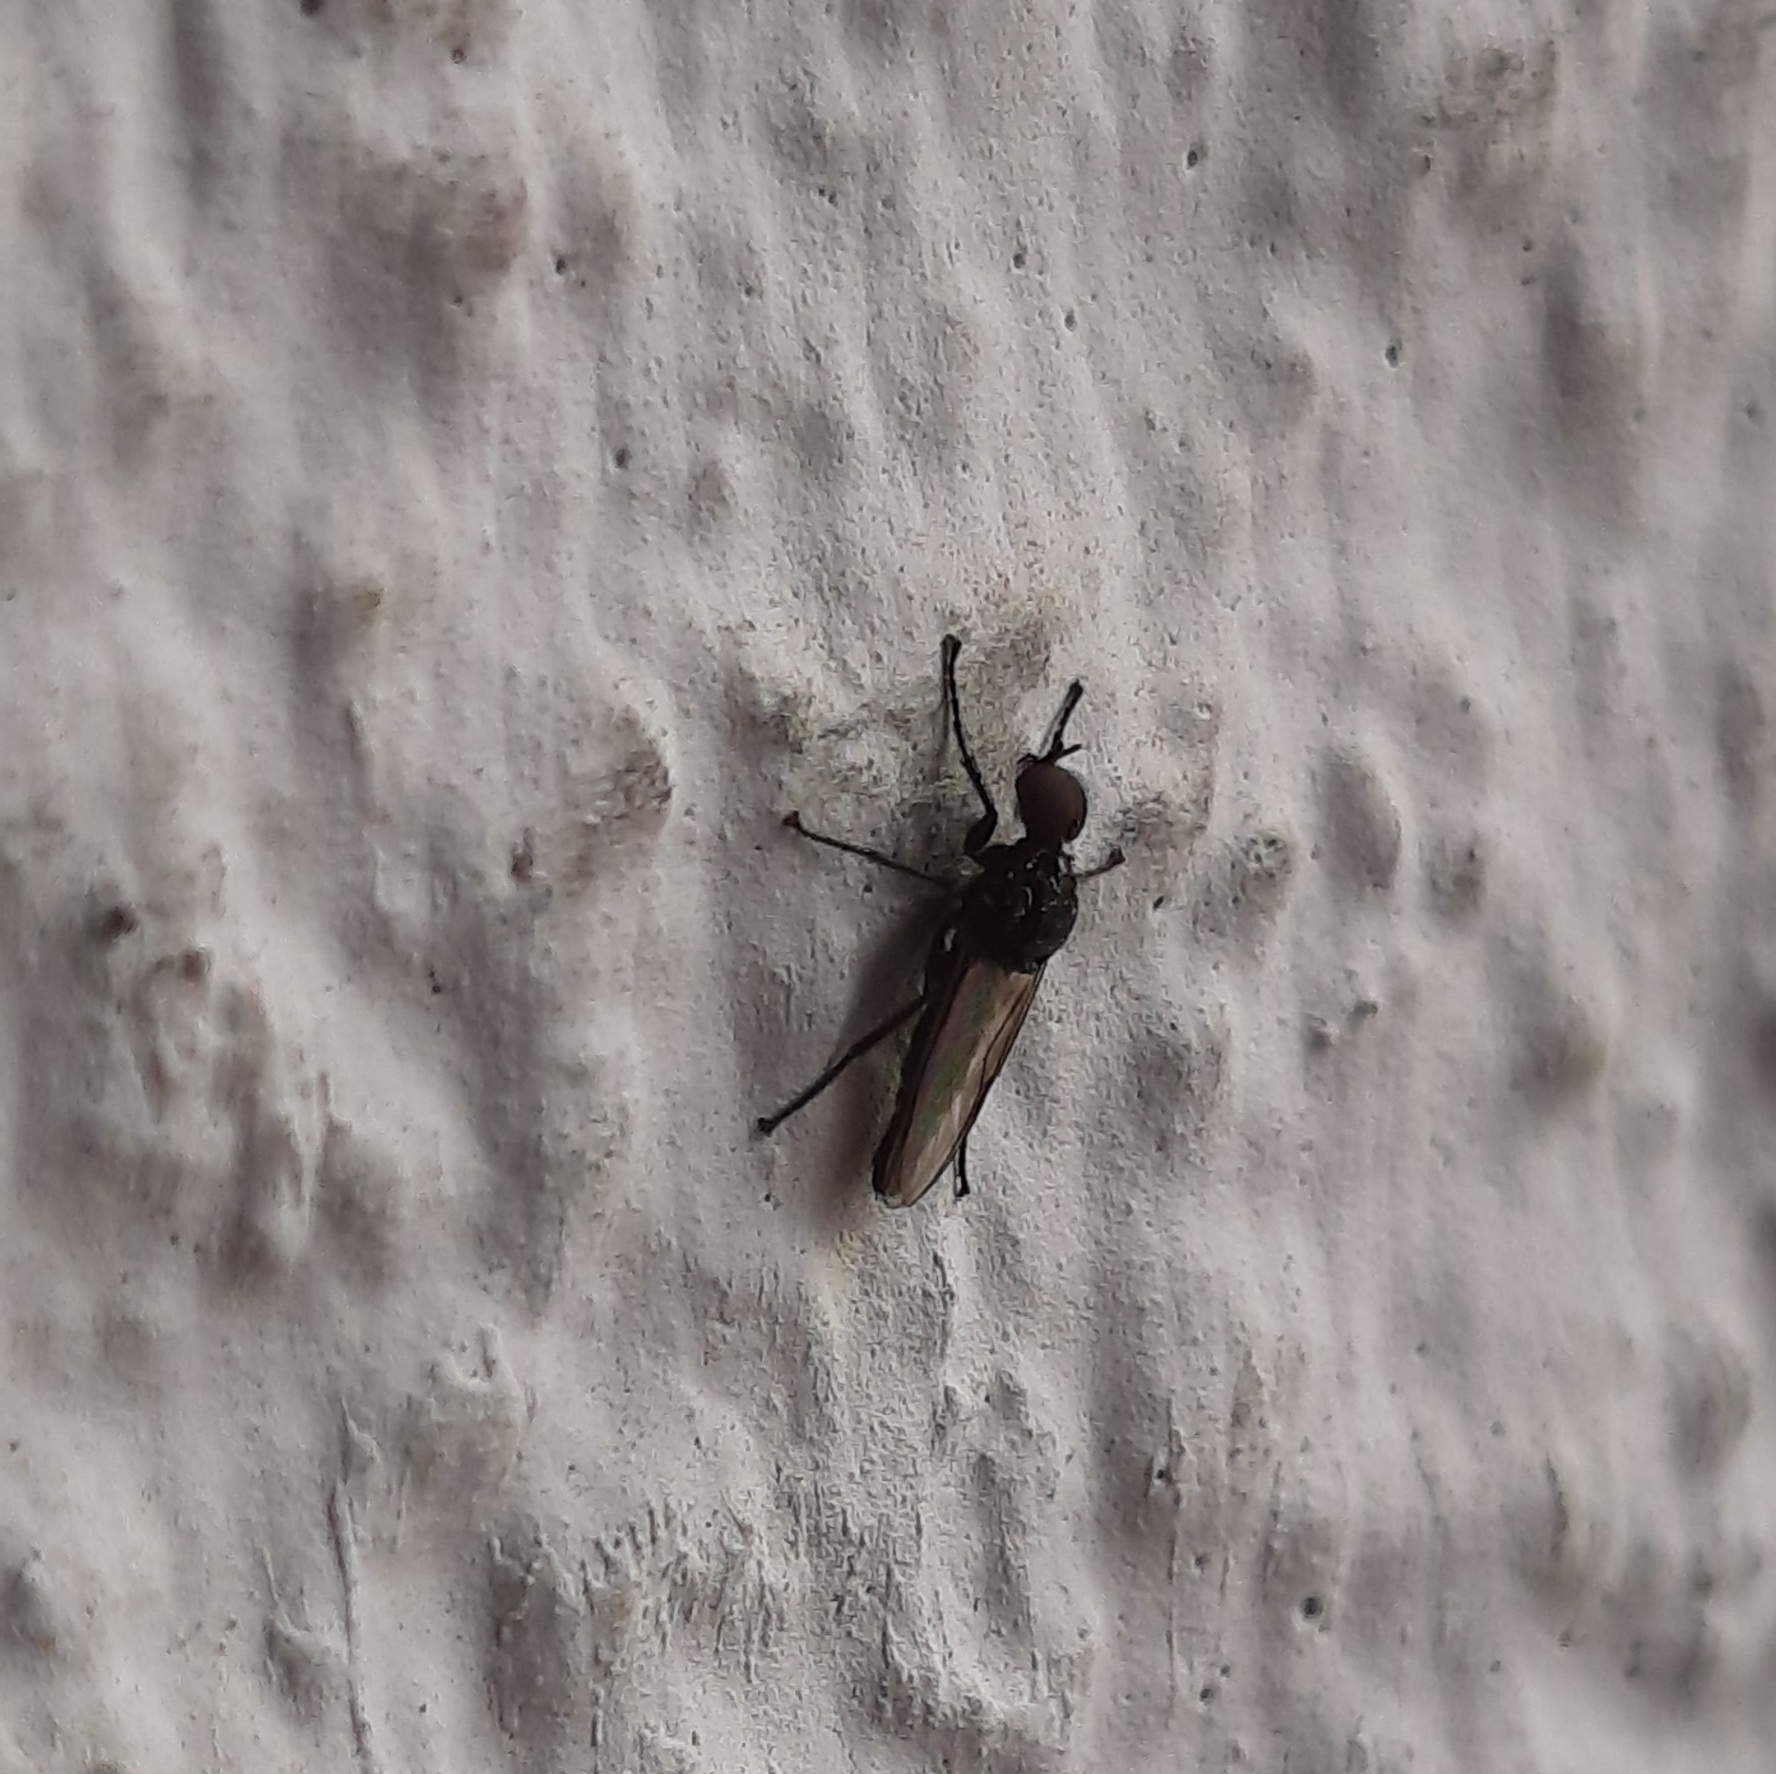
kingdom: Animalia
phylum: Arthropoda
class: Insecta
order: Diptera
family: Bibionidae
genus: Dilophus
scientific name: Dilophus
